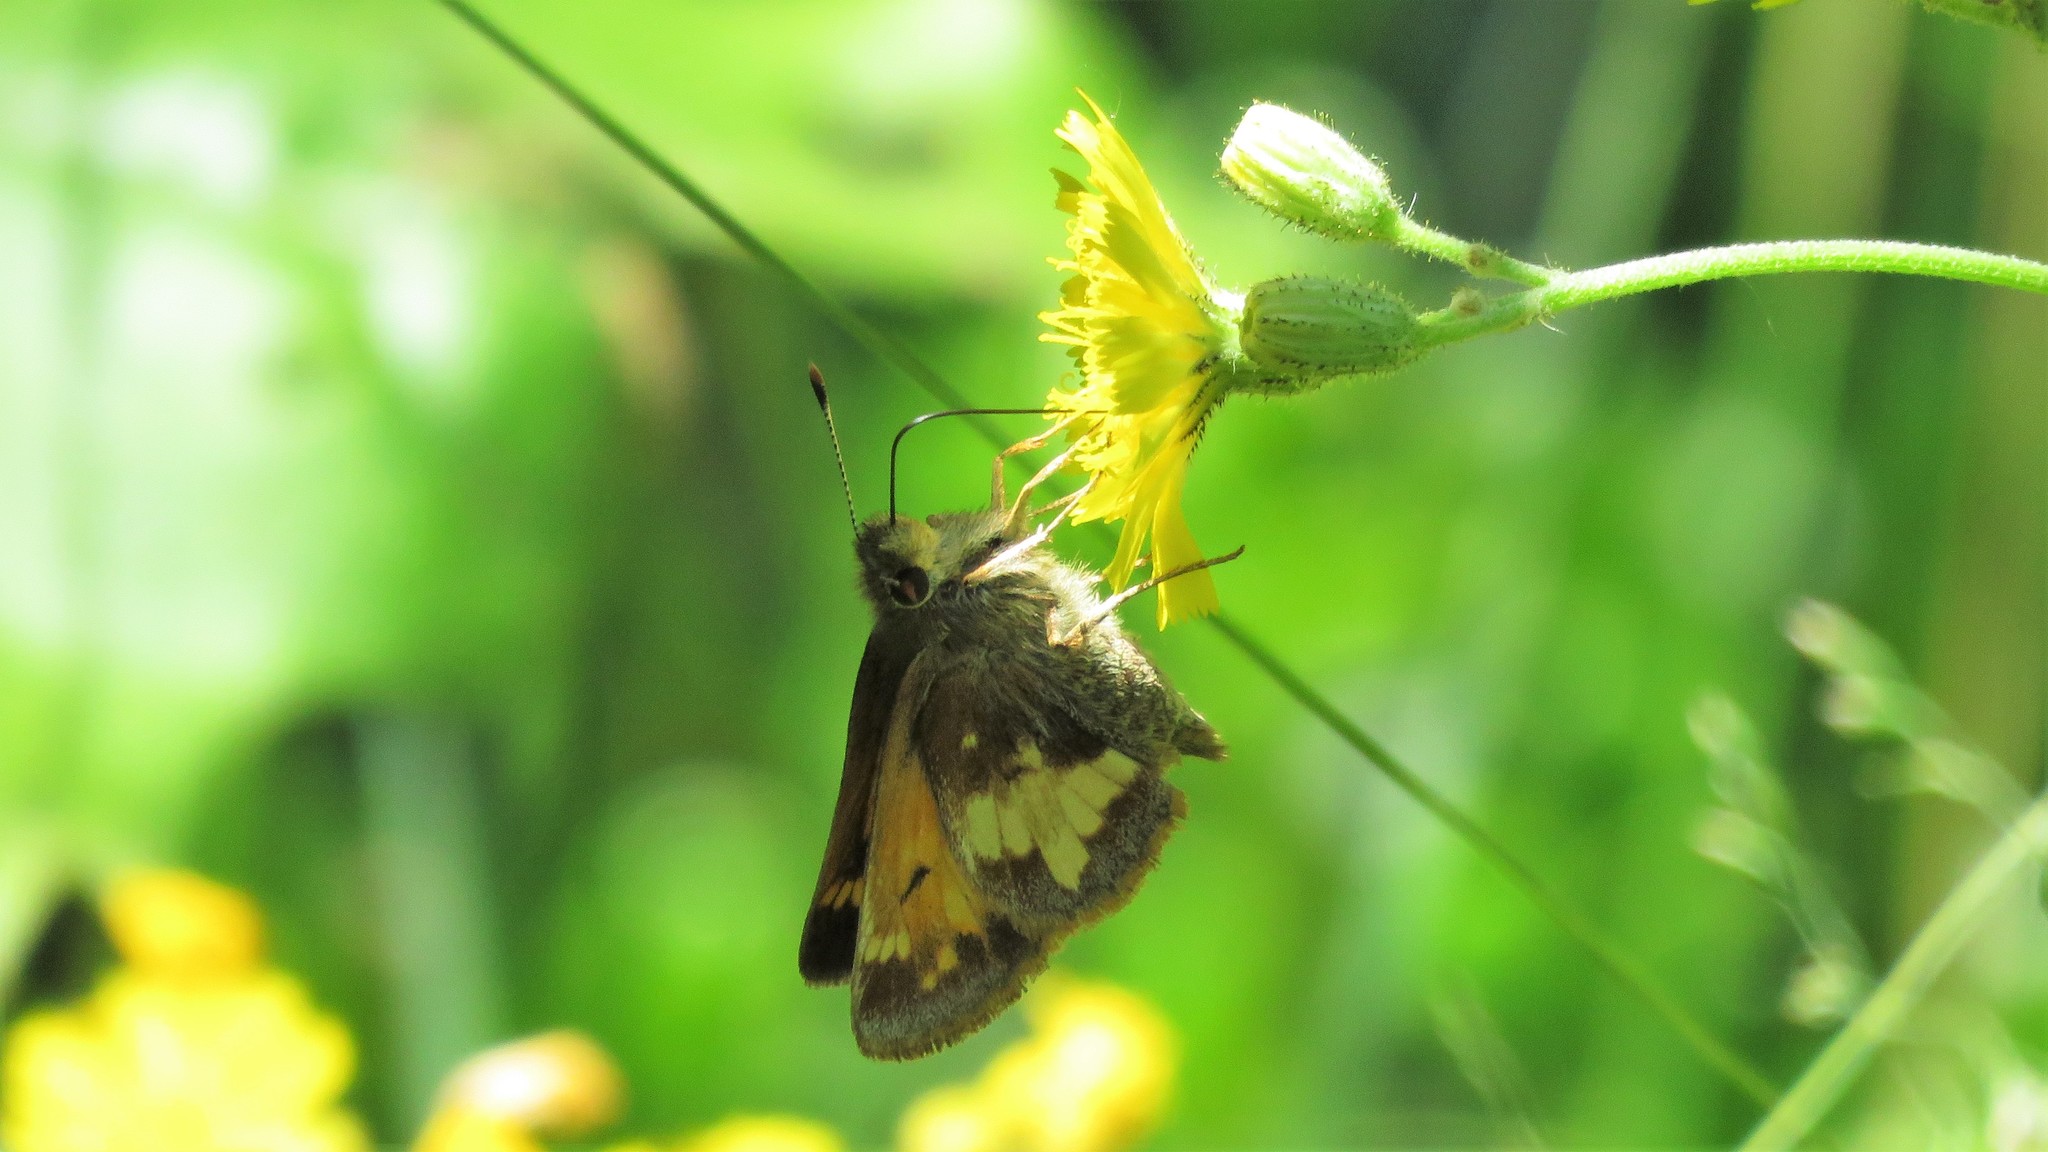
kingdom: Animalia
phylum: Arthropoda
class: Insecta
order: Lepidoptera
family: Hesperiidae
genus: Lon
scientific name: Lon hobomok
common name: Hobomok skipper
